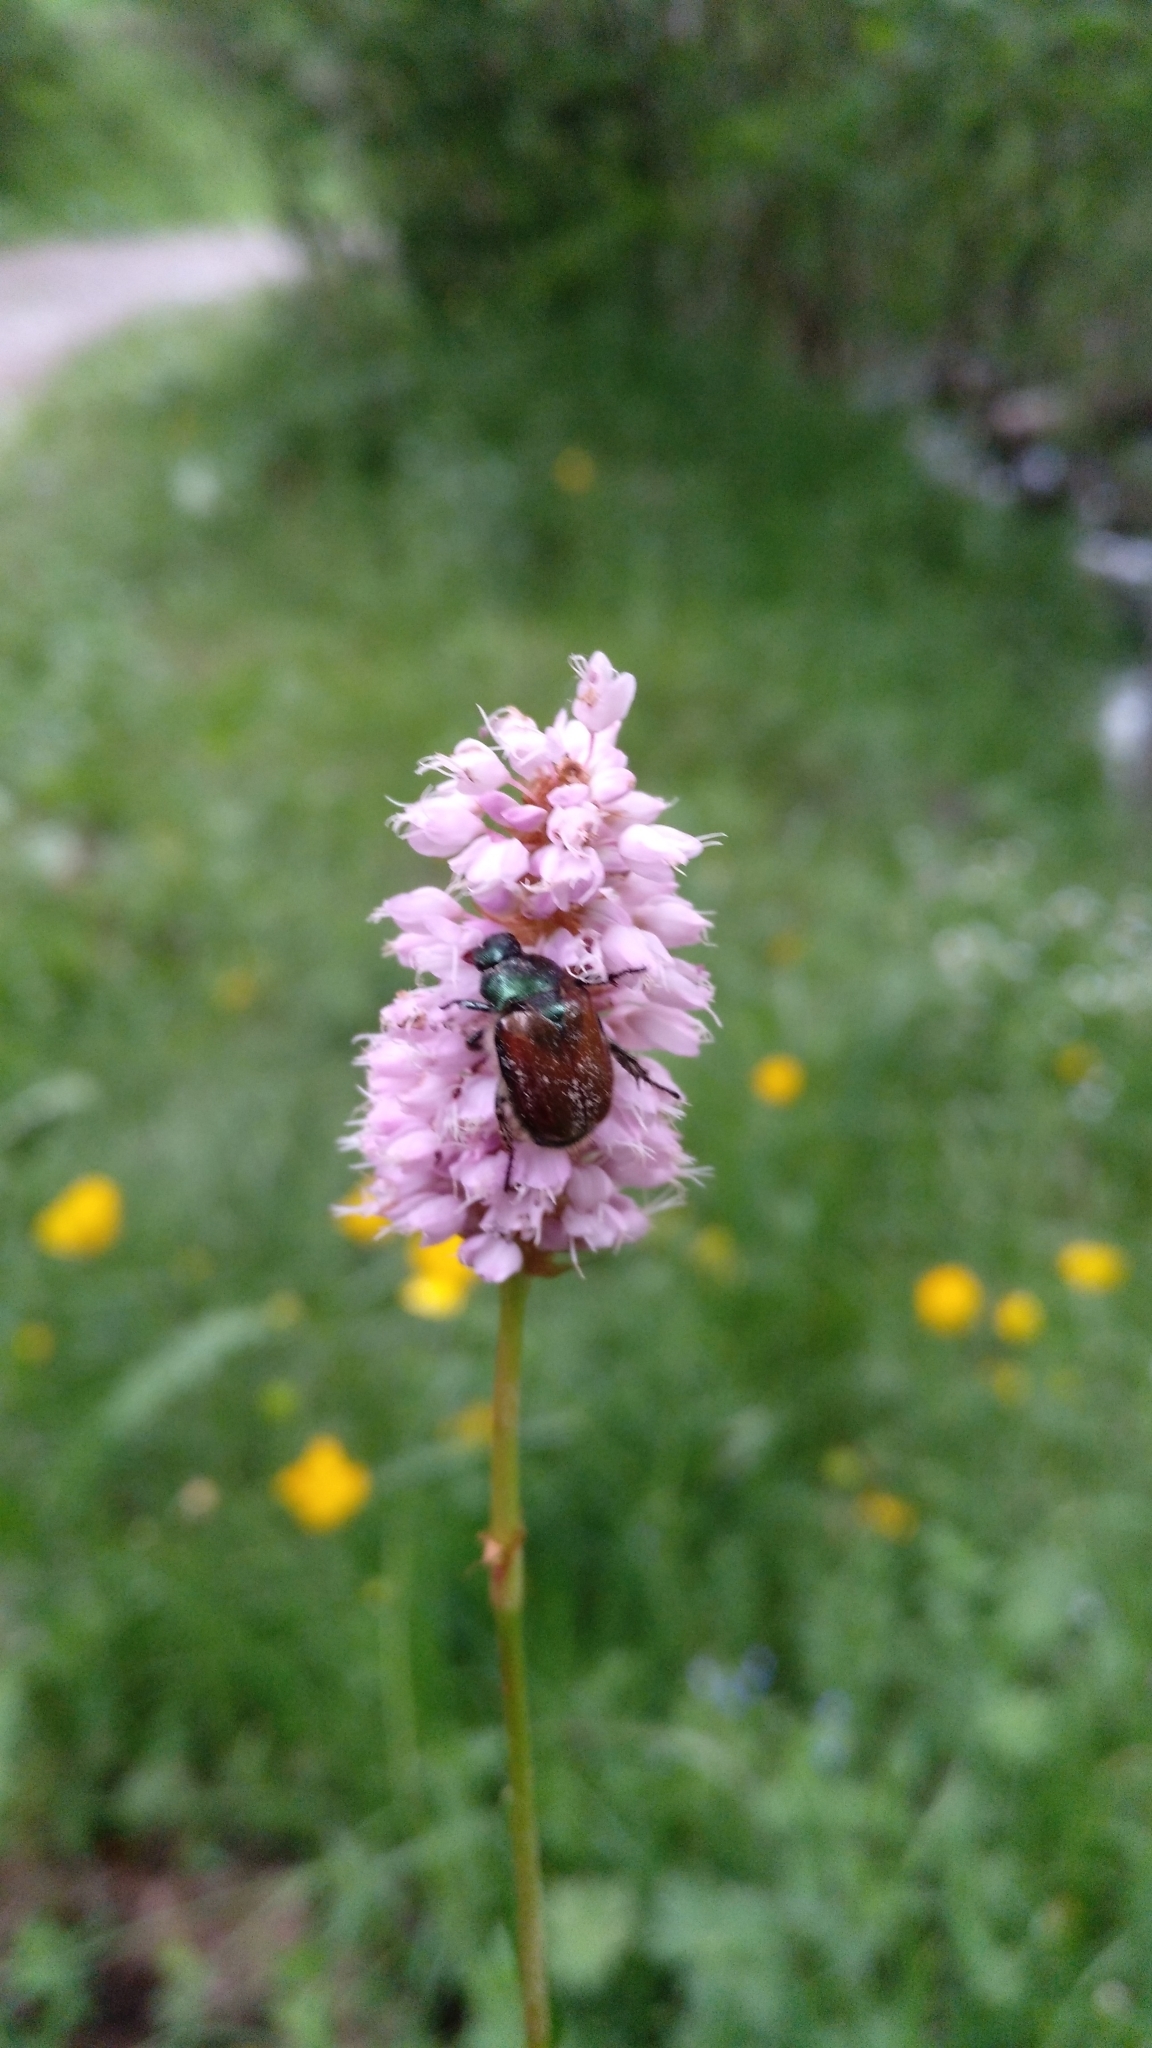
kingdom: Animalia
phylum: Arthropoda
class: Insecta
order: Coleoptera
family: Scarabaeidae
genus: Phyllopertha
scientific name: Phyllopertha horticola
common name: Garden chafer
